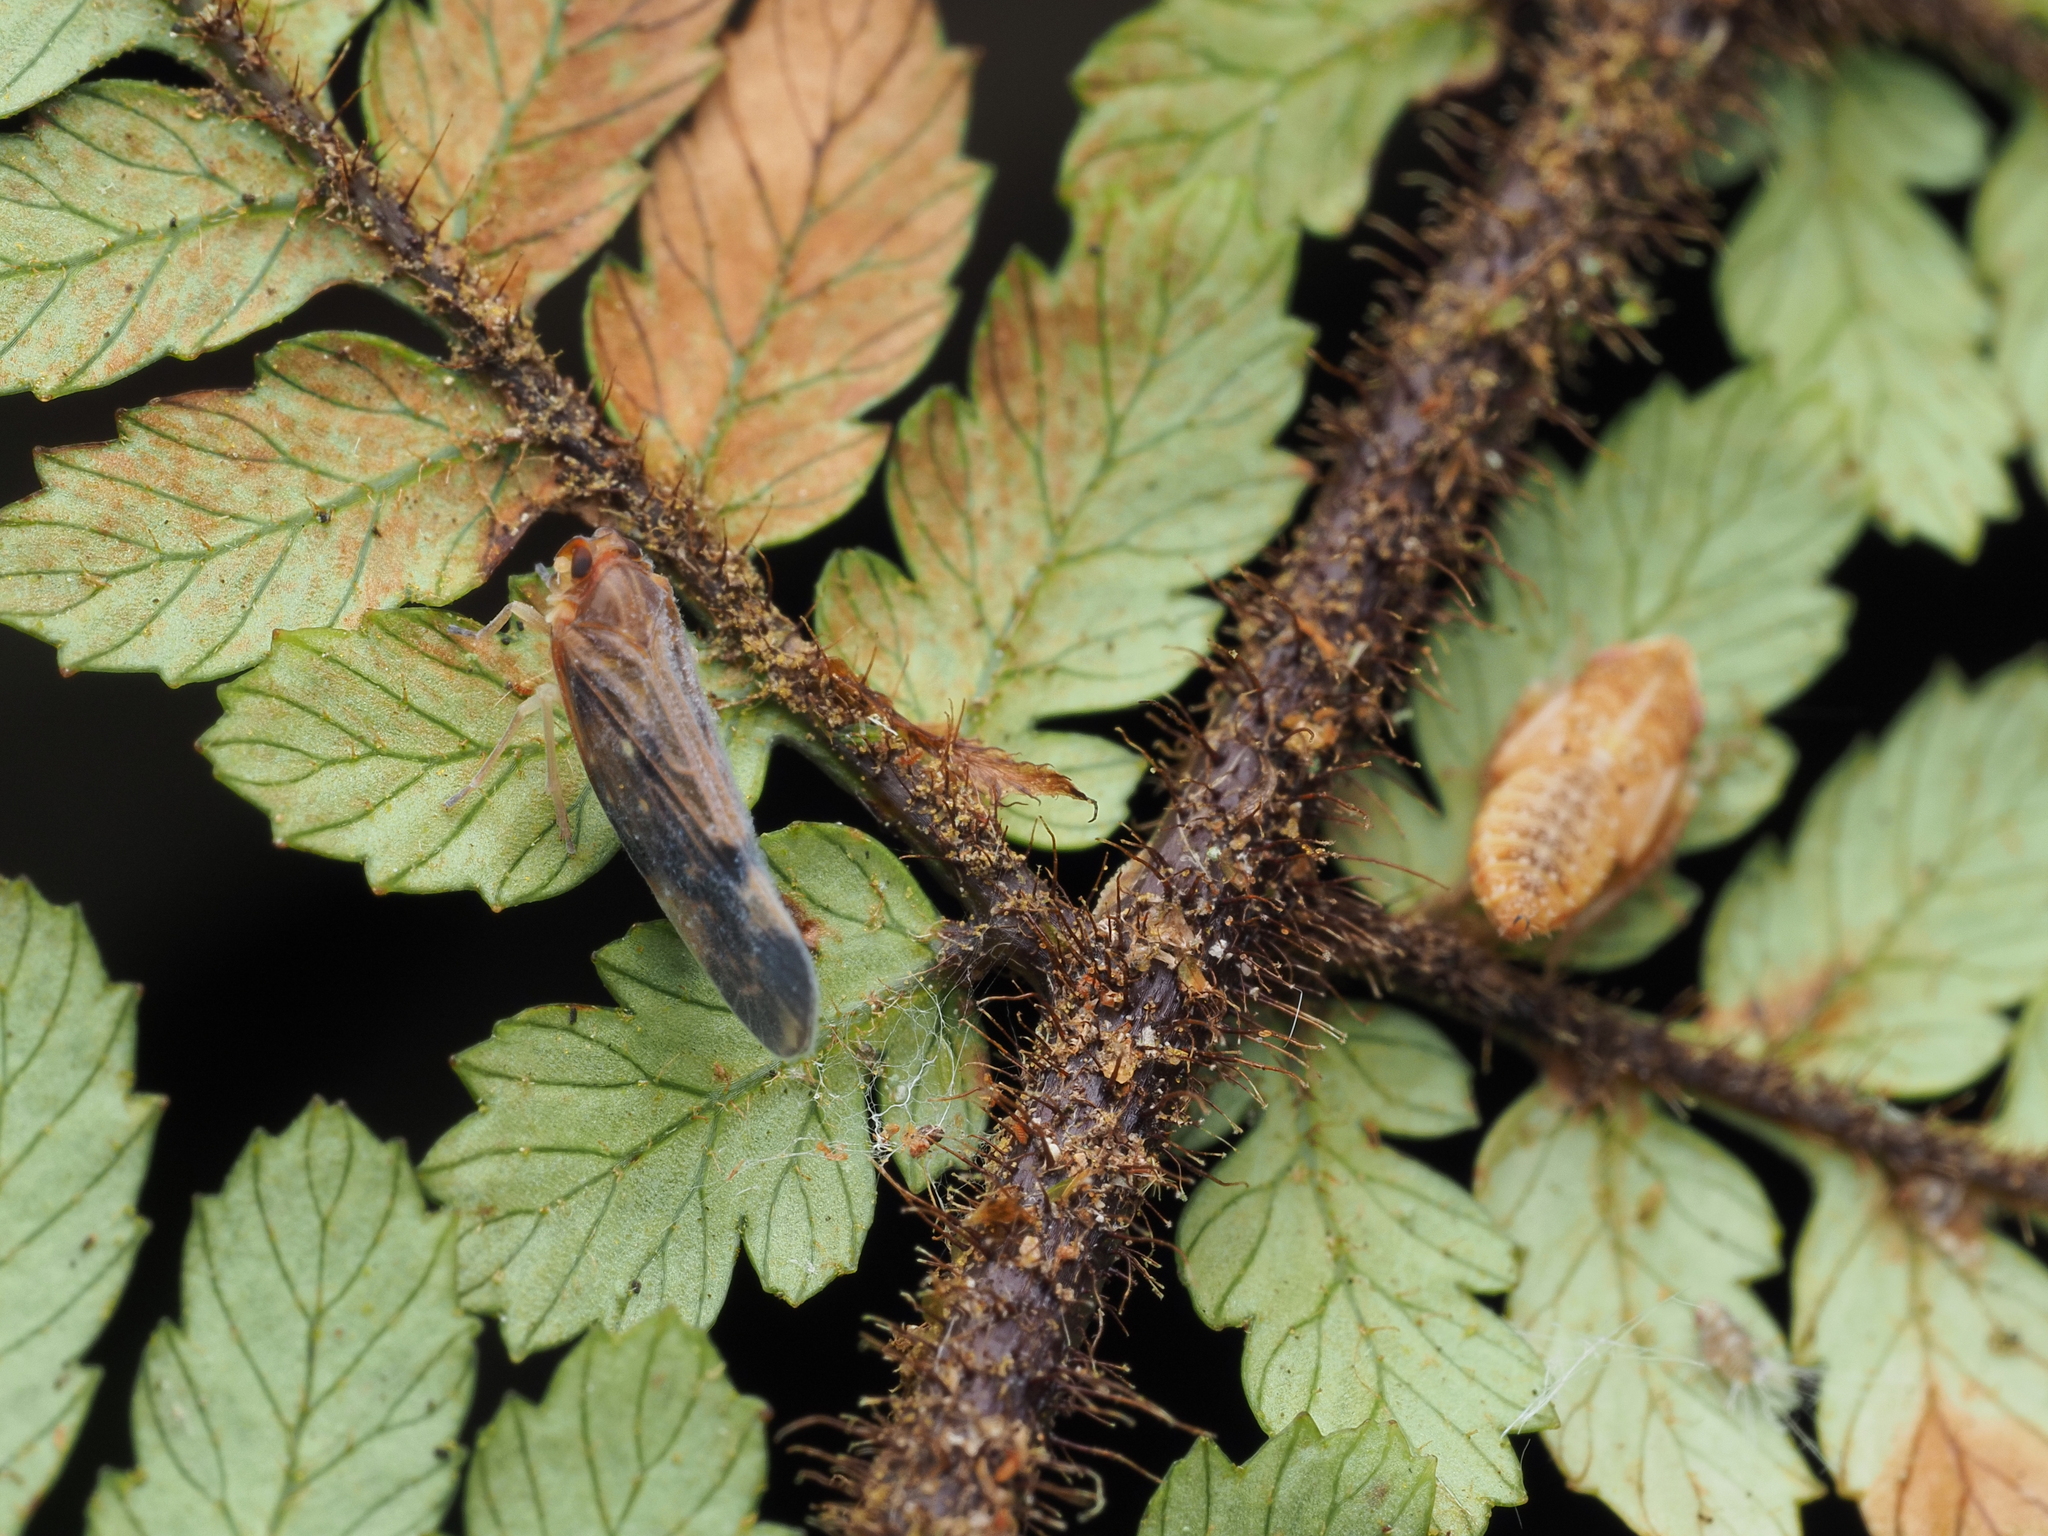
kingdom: Animalia
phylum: Arthropoda
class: Insecta
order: Hemiptera
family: Cicadellidae
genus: Scaphetus
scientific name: Scaphetus brunneus
